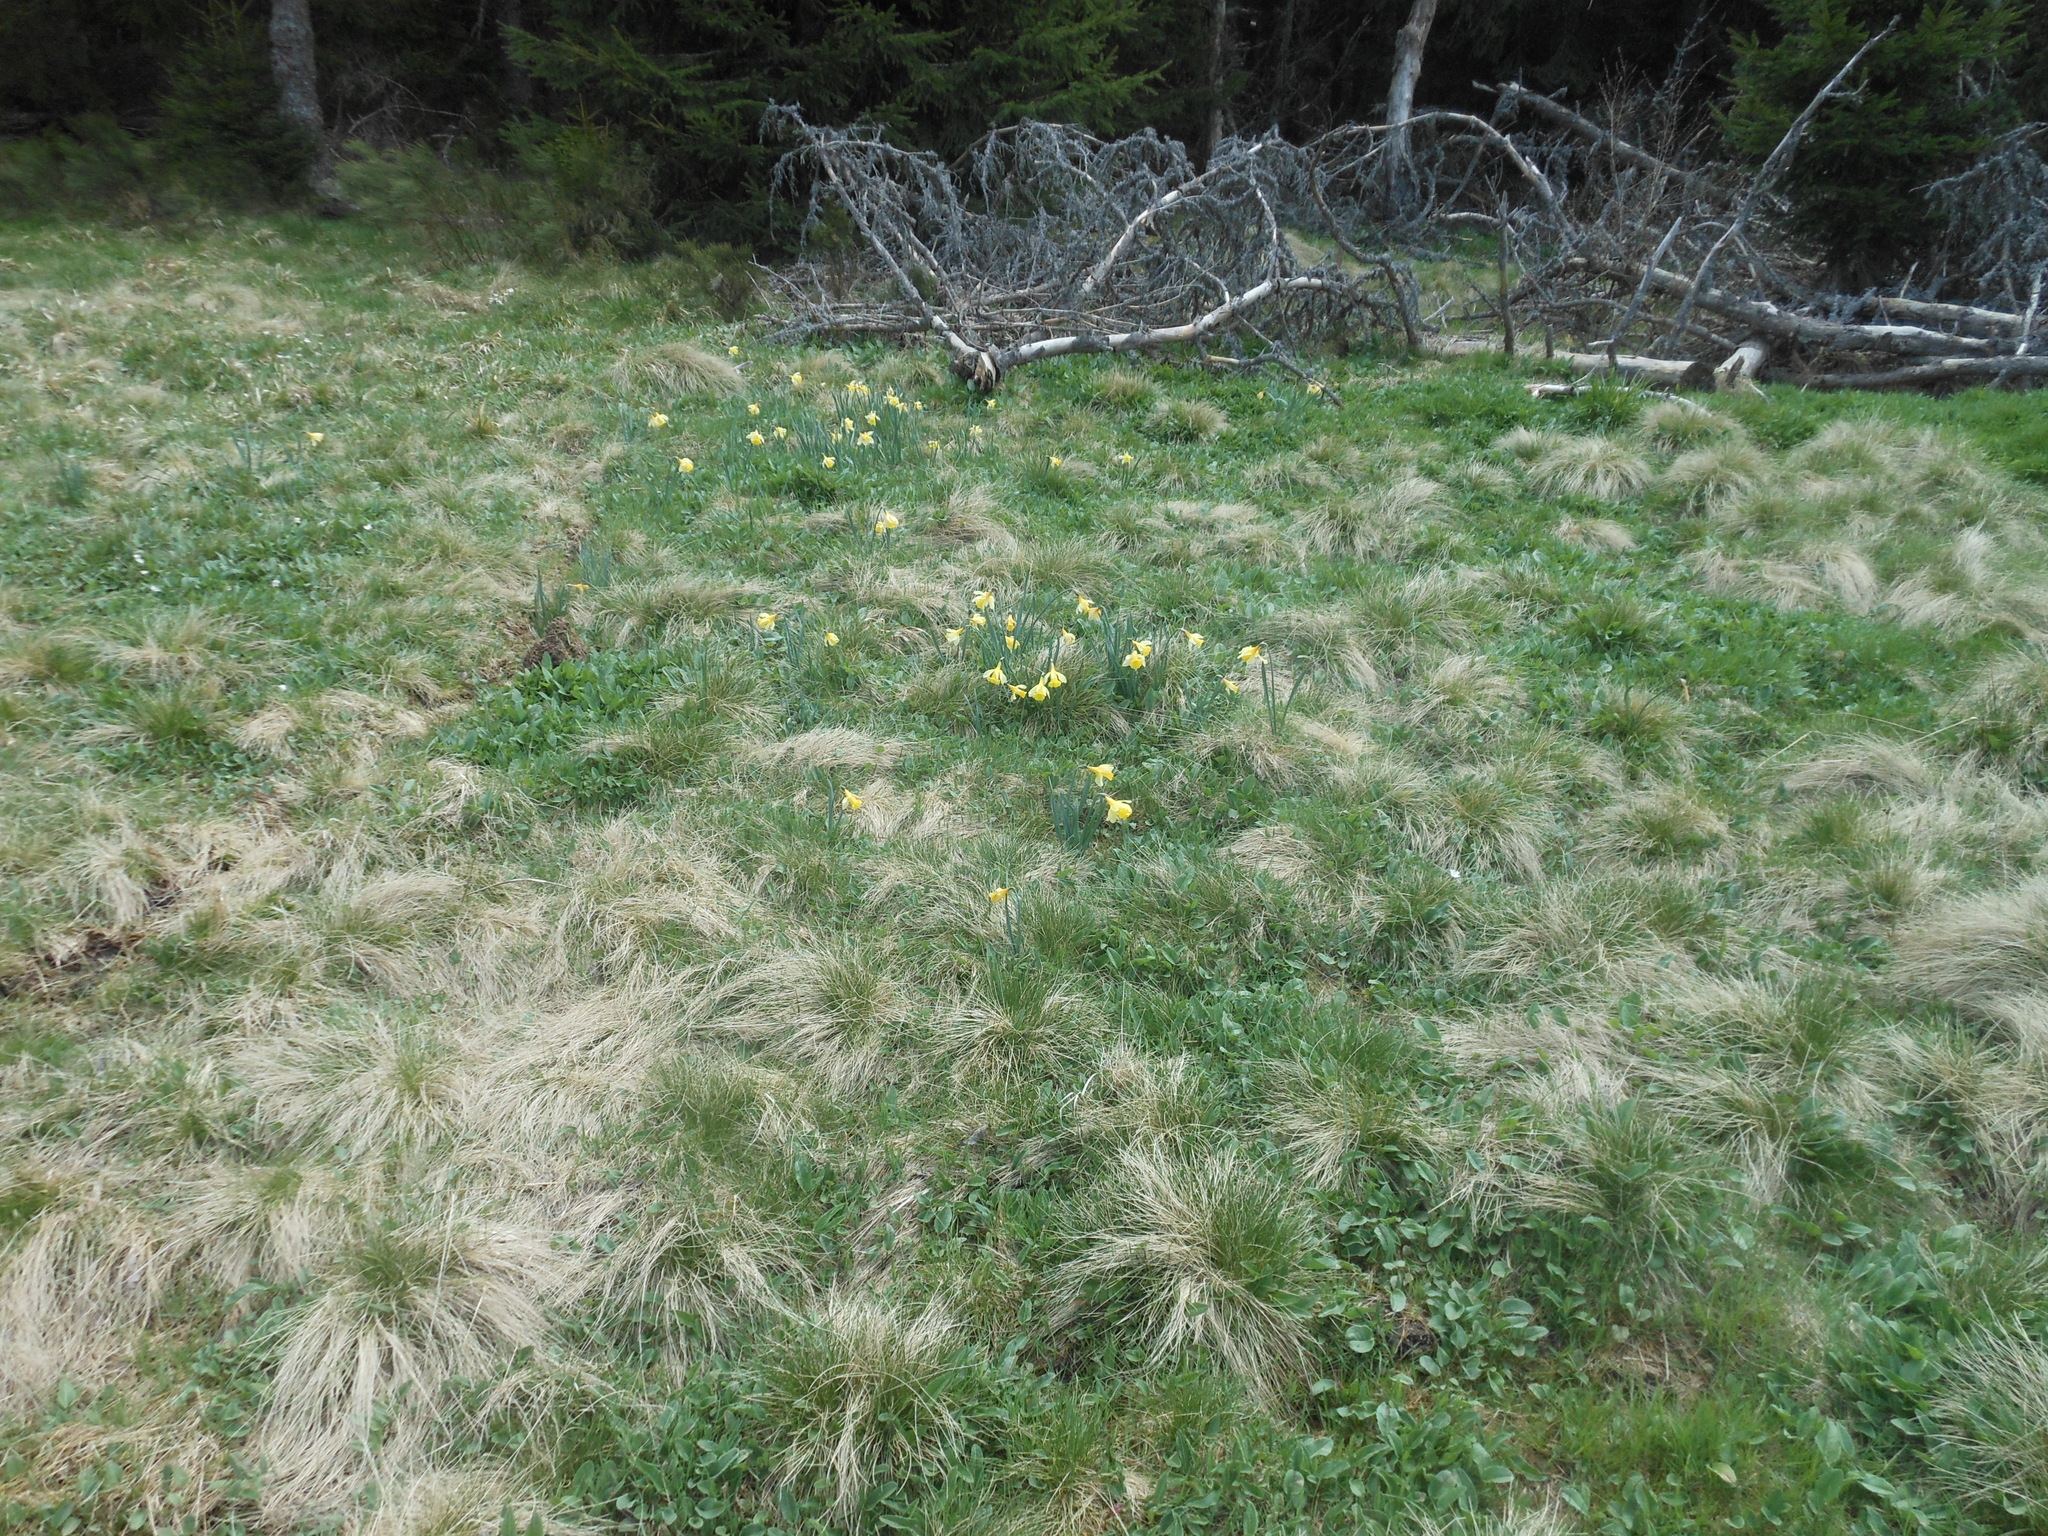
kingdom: Plantae
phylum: Tracheophyta
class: Liliopsida
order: Asparagales
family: Amaryllidaceae
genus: Narcissus
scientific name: Narcissus pseudonarcissus
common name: Daffodil
